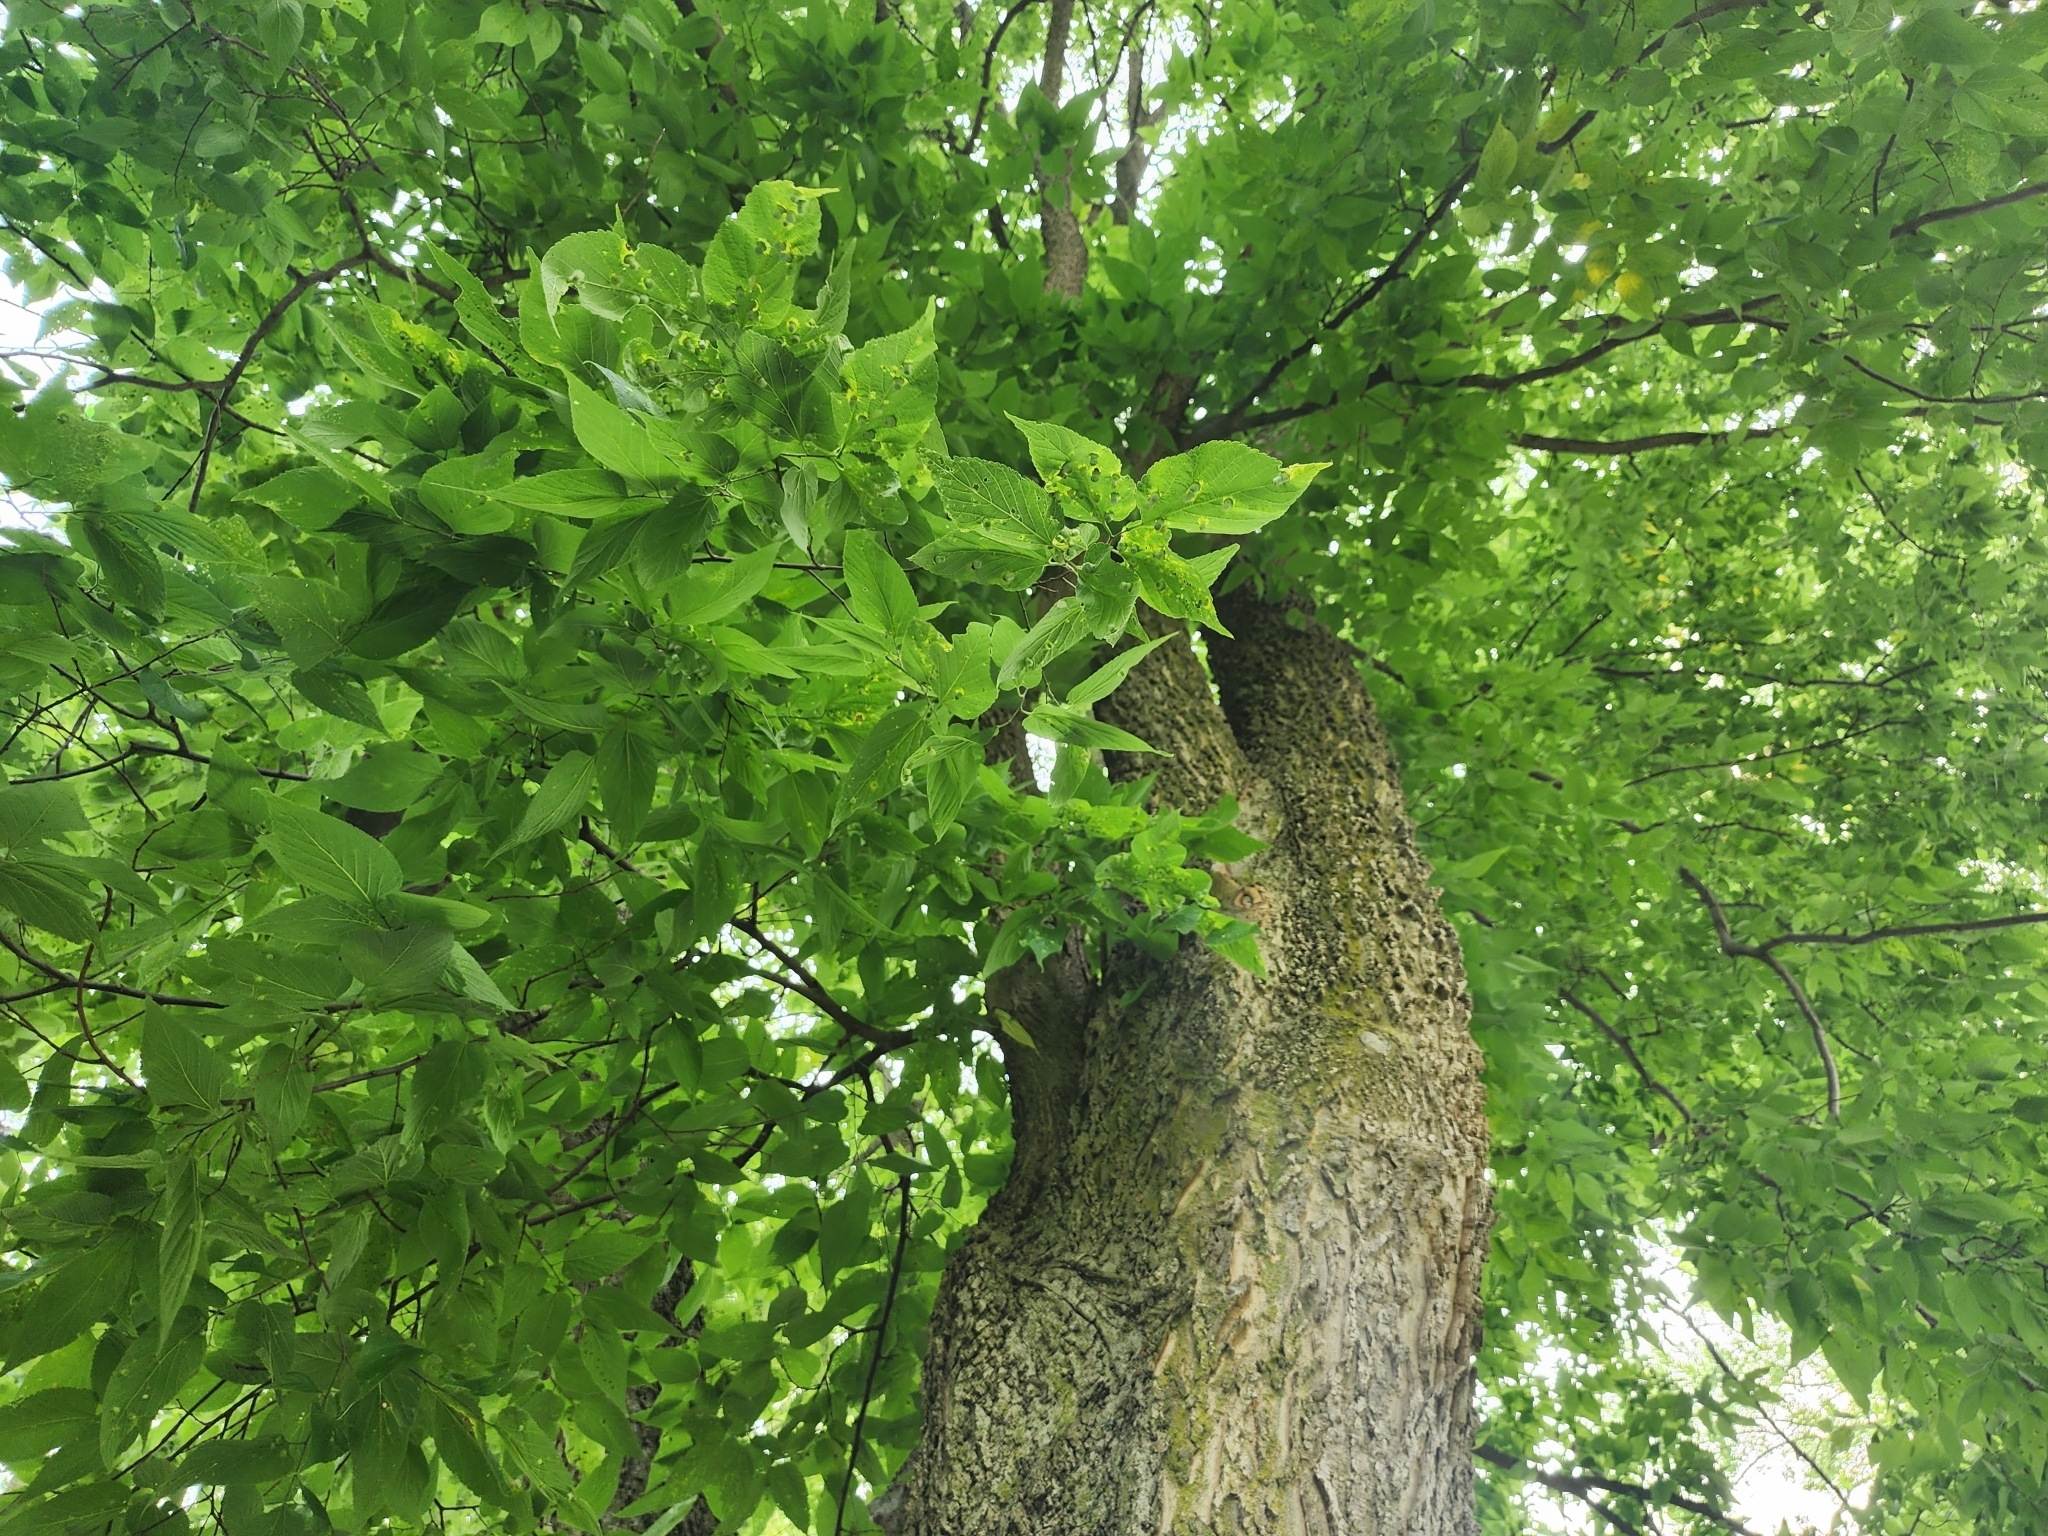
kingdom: Plantae
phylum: Tracheophyta
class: Magnoliopsida
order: Rosales
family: Cannabaceae
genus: Celtis
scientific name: Celtis occidentalis
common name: Common hackberry
